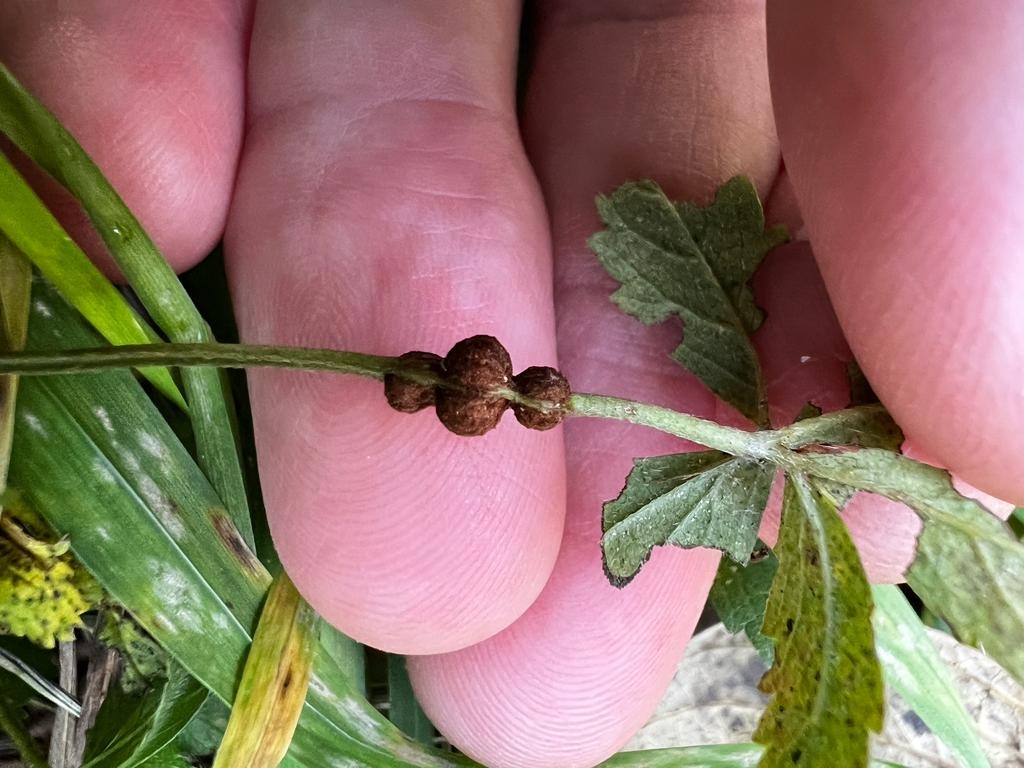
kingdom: Animalia
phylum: Arthropoda
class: Insecta
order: Hymenoptera
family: Cynipidae
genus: Xestophanes
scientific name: Xestophanes potentillae
